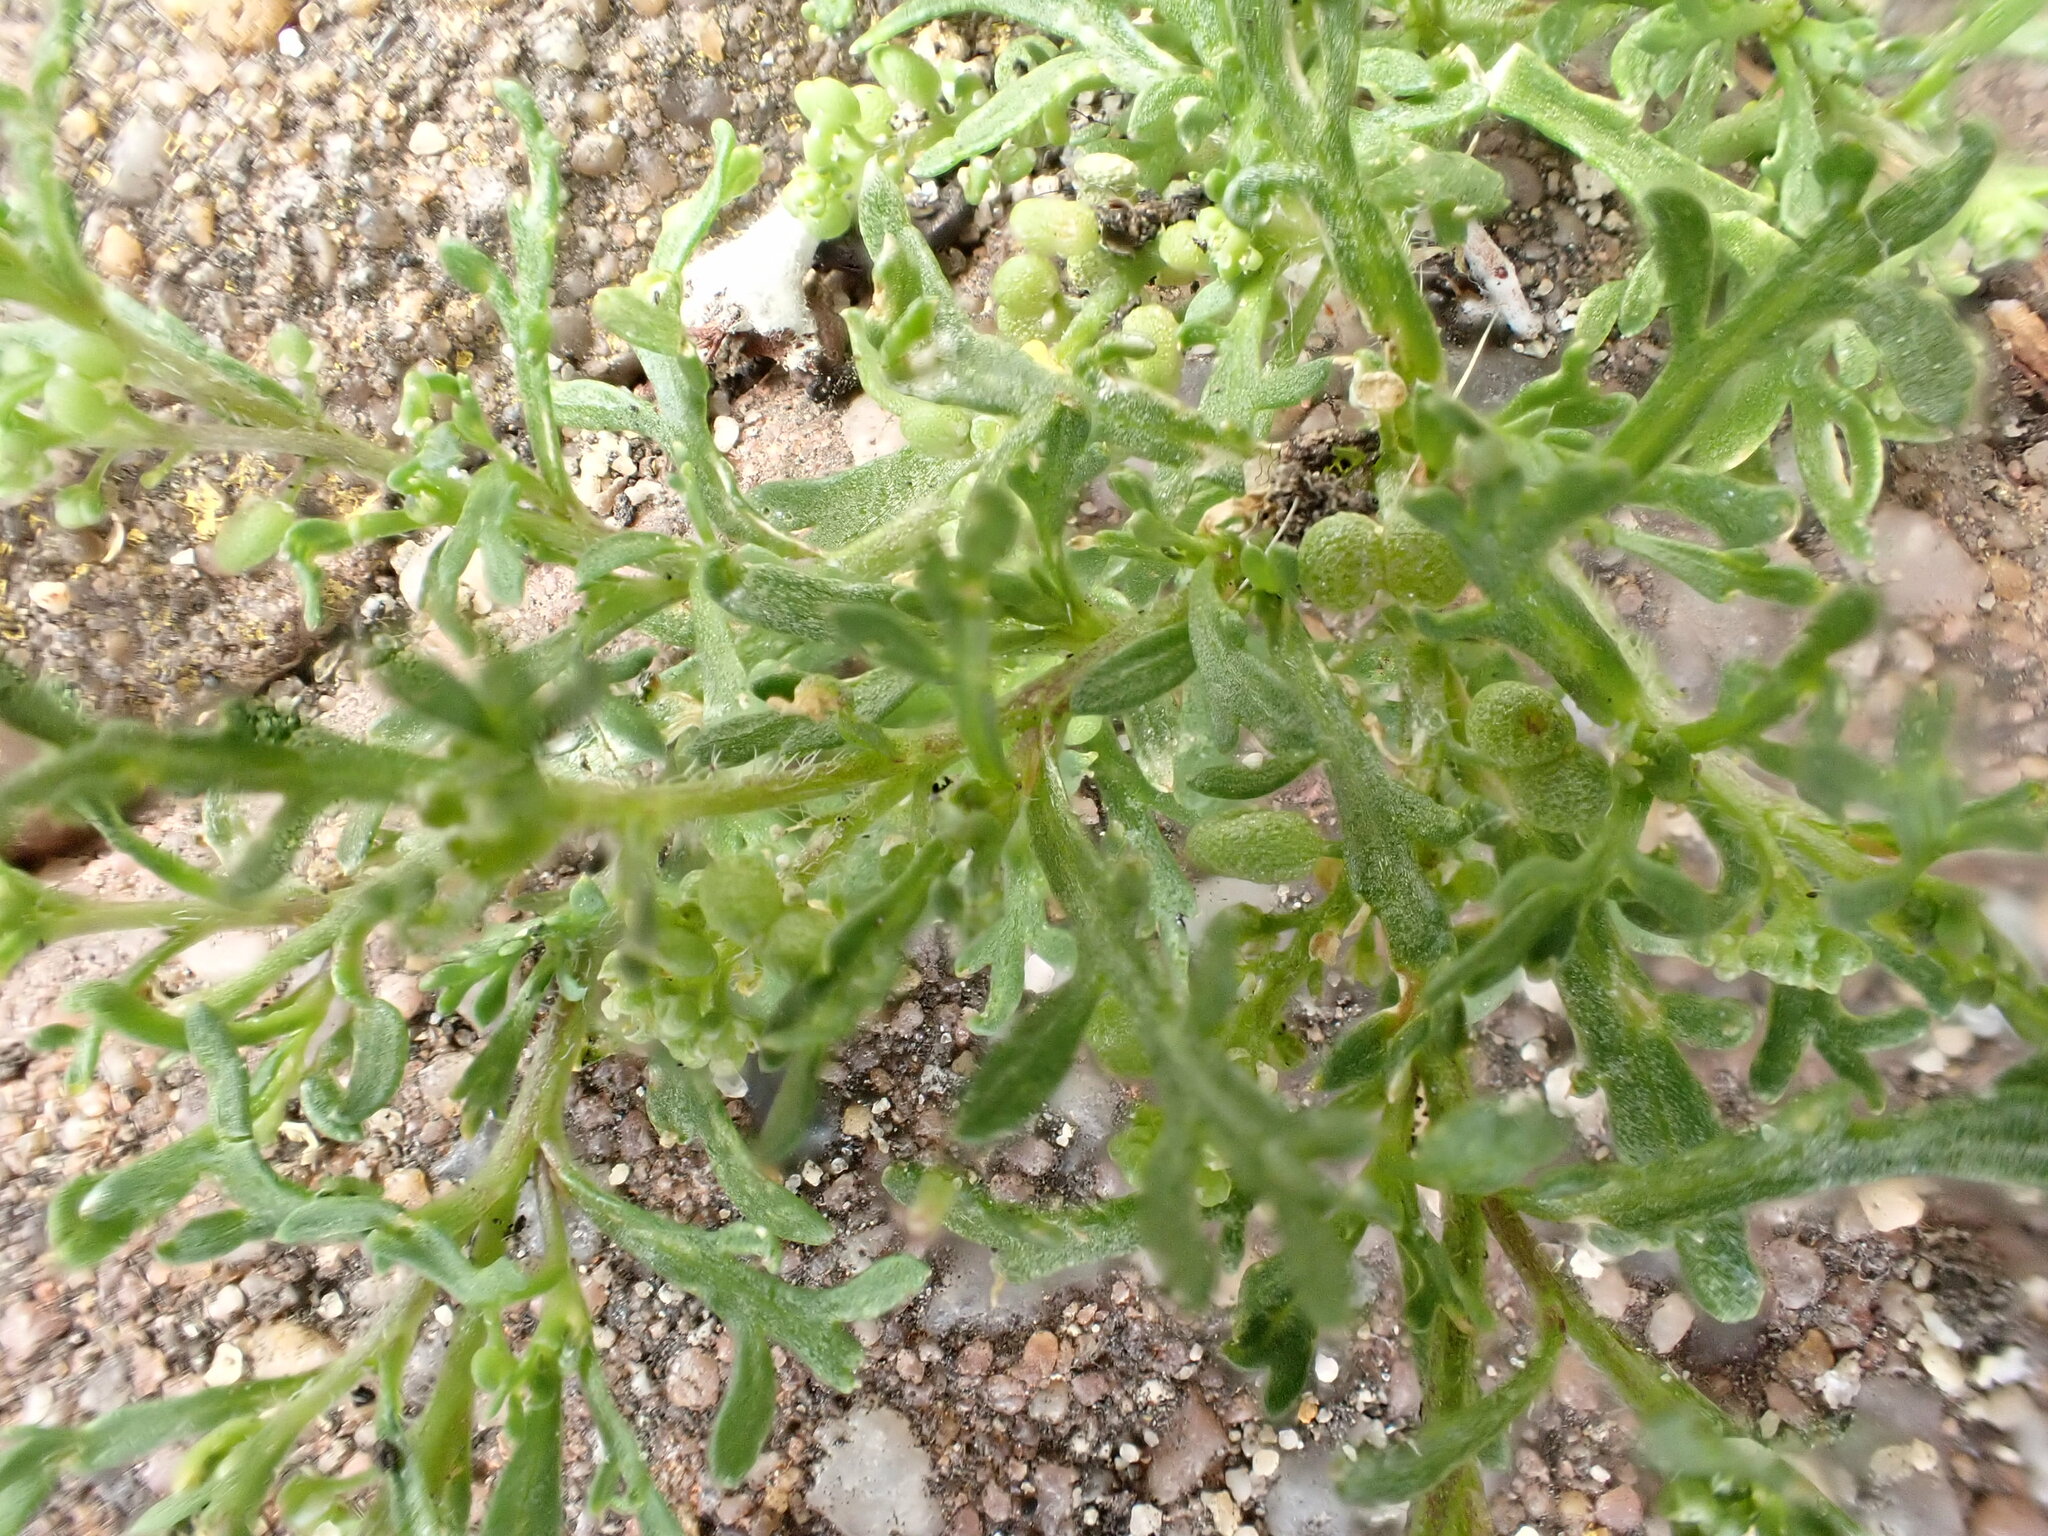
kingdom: Plantae
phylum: Tracheophyta
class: Magnoliopsida
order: Brassicales
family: Brassicaceae
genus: Lepidium
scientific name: Lepidium didymum
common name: Lesser swinecress
